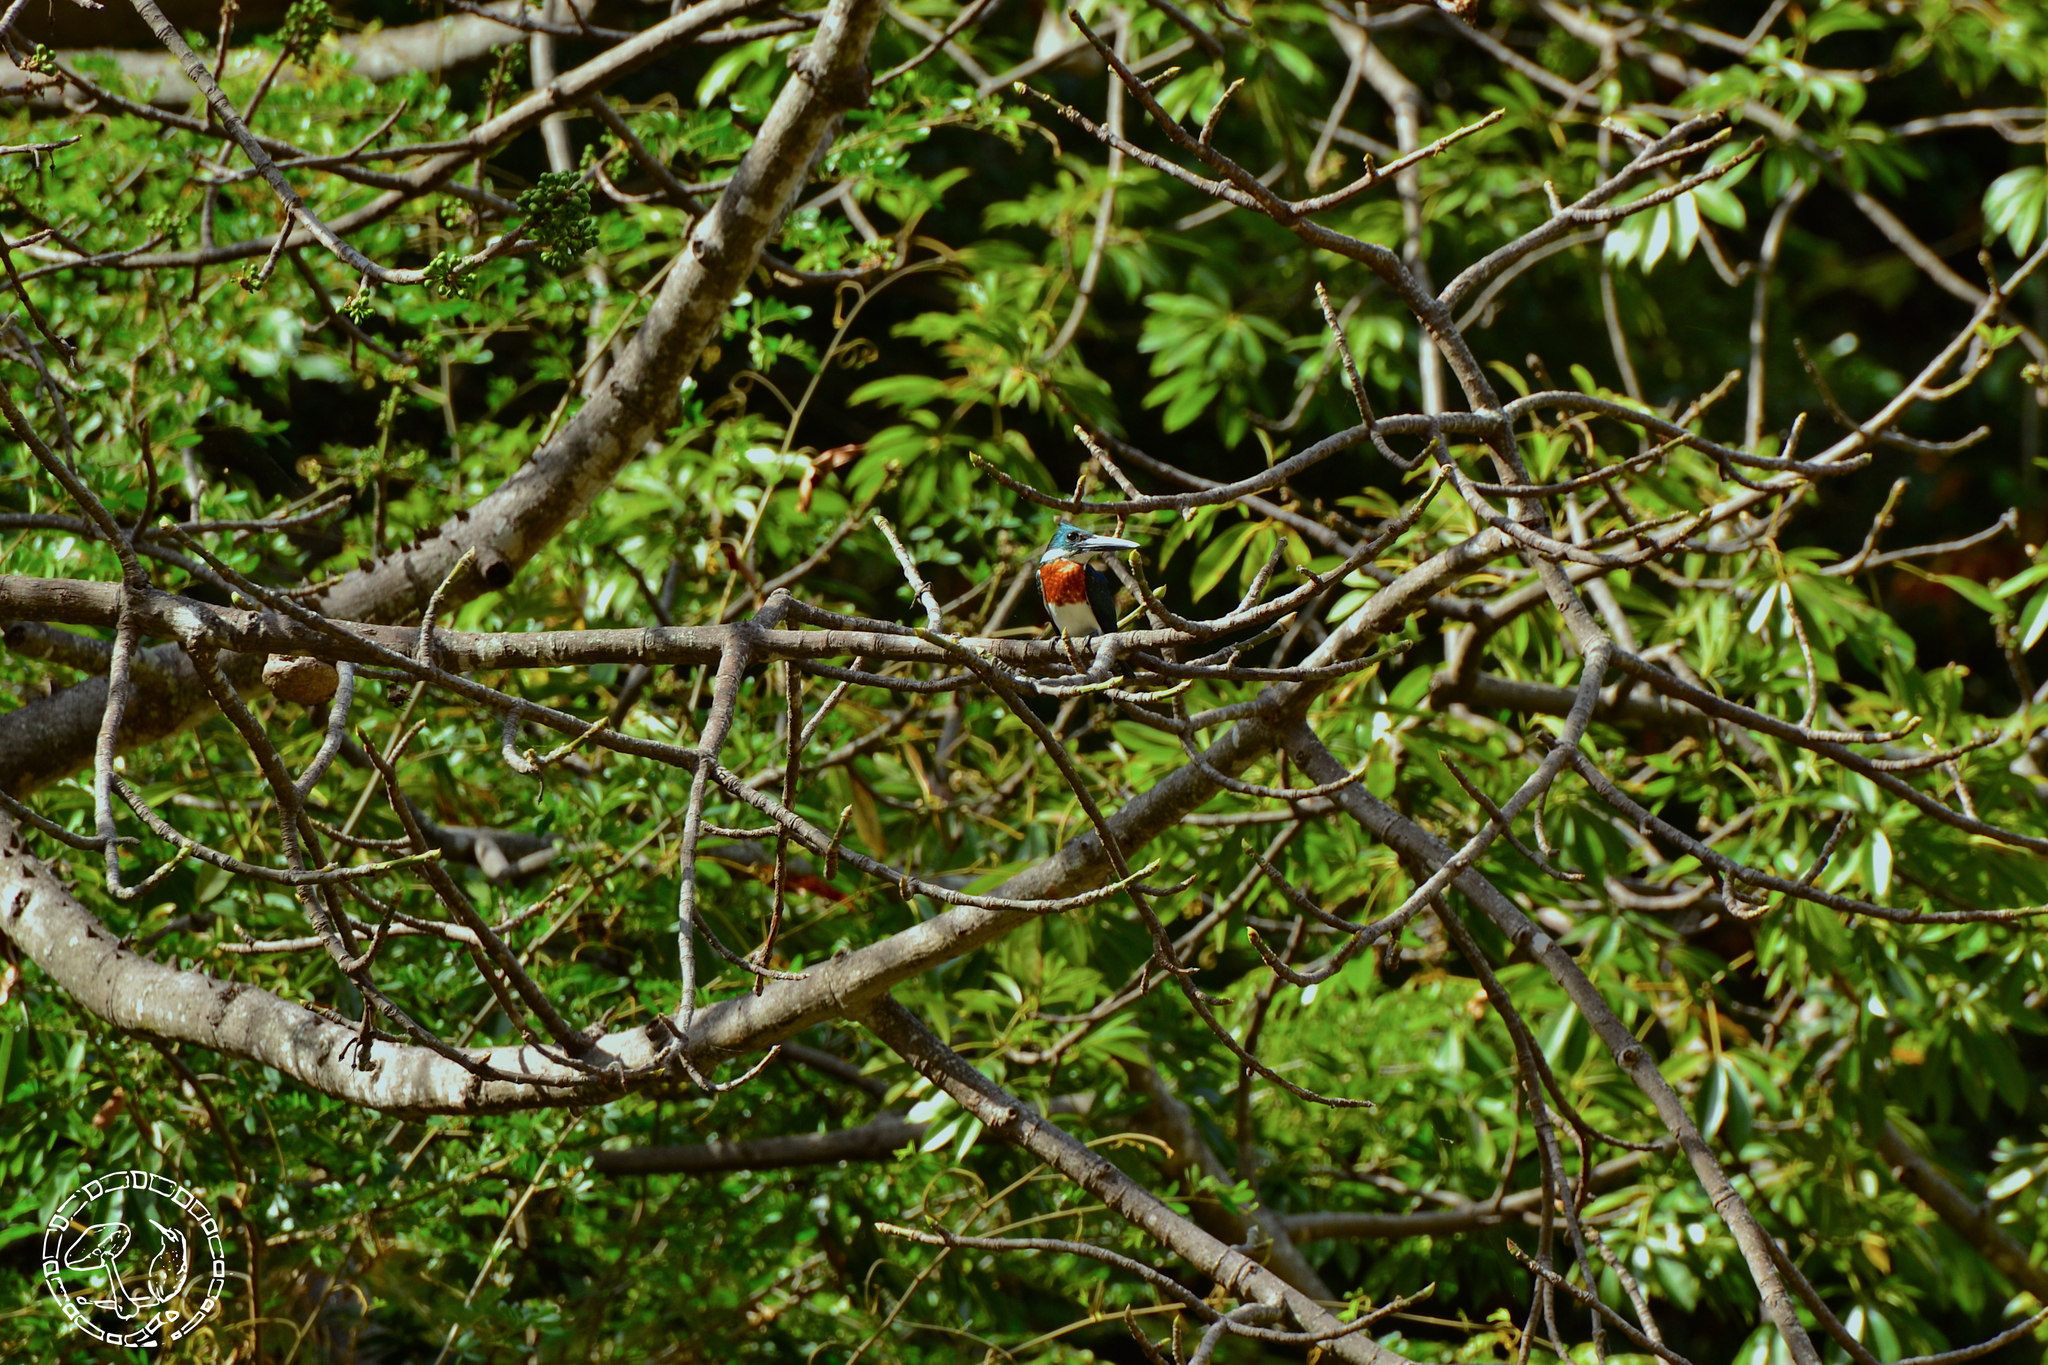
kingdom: Animalia
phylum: Chordata
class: Aves
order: Coraciiformes
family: Alcedinidae
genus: Chloroceryle
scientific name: Chloroceryle amazona
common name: Amazon kingfisher
